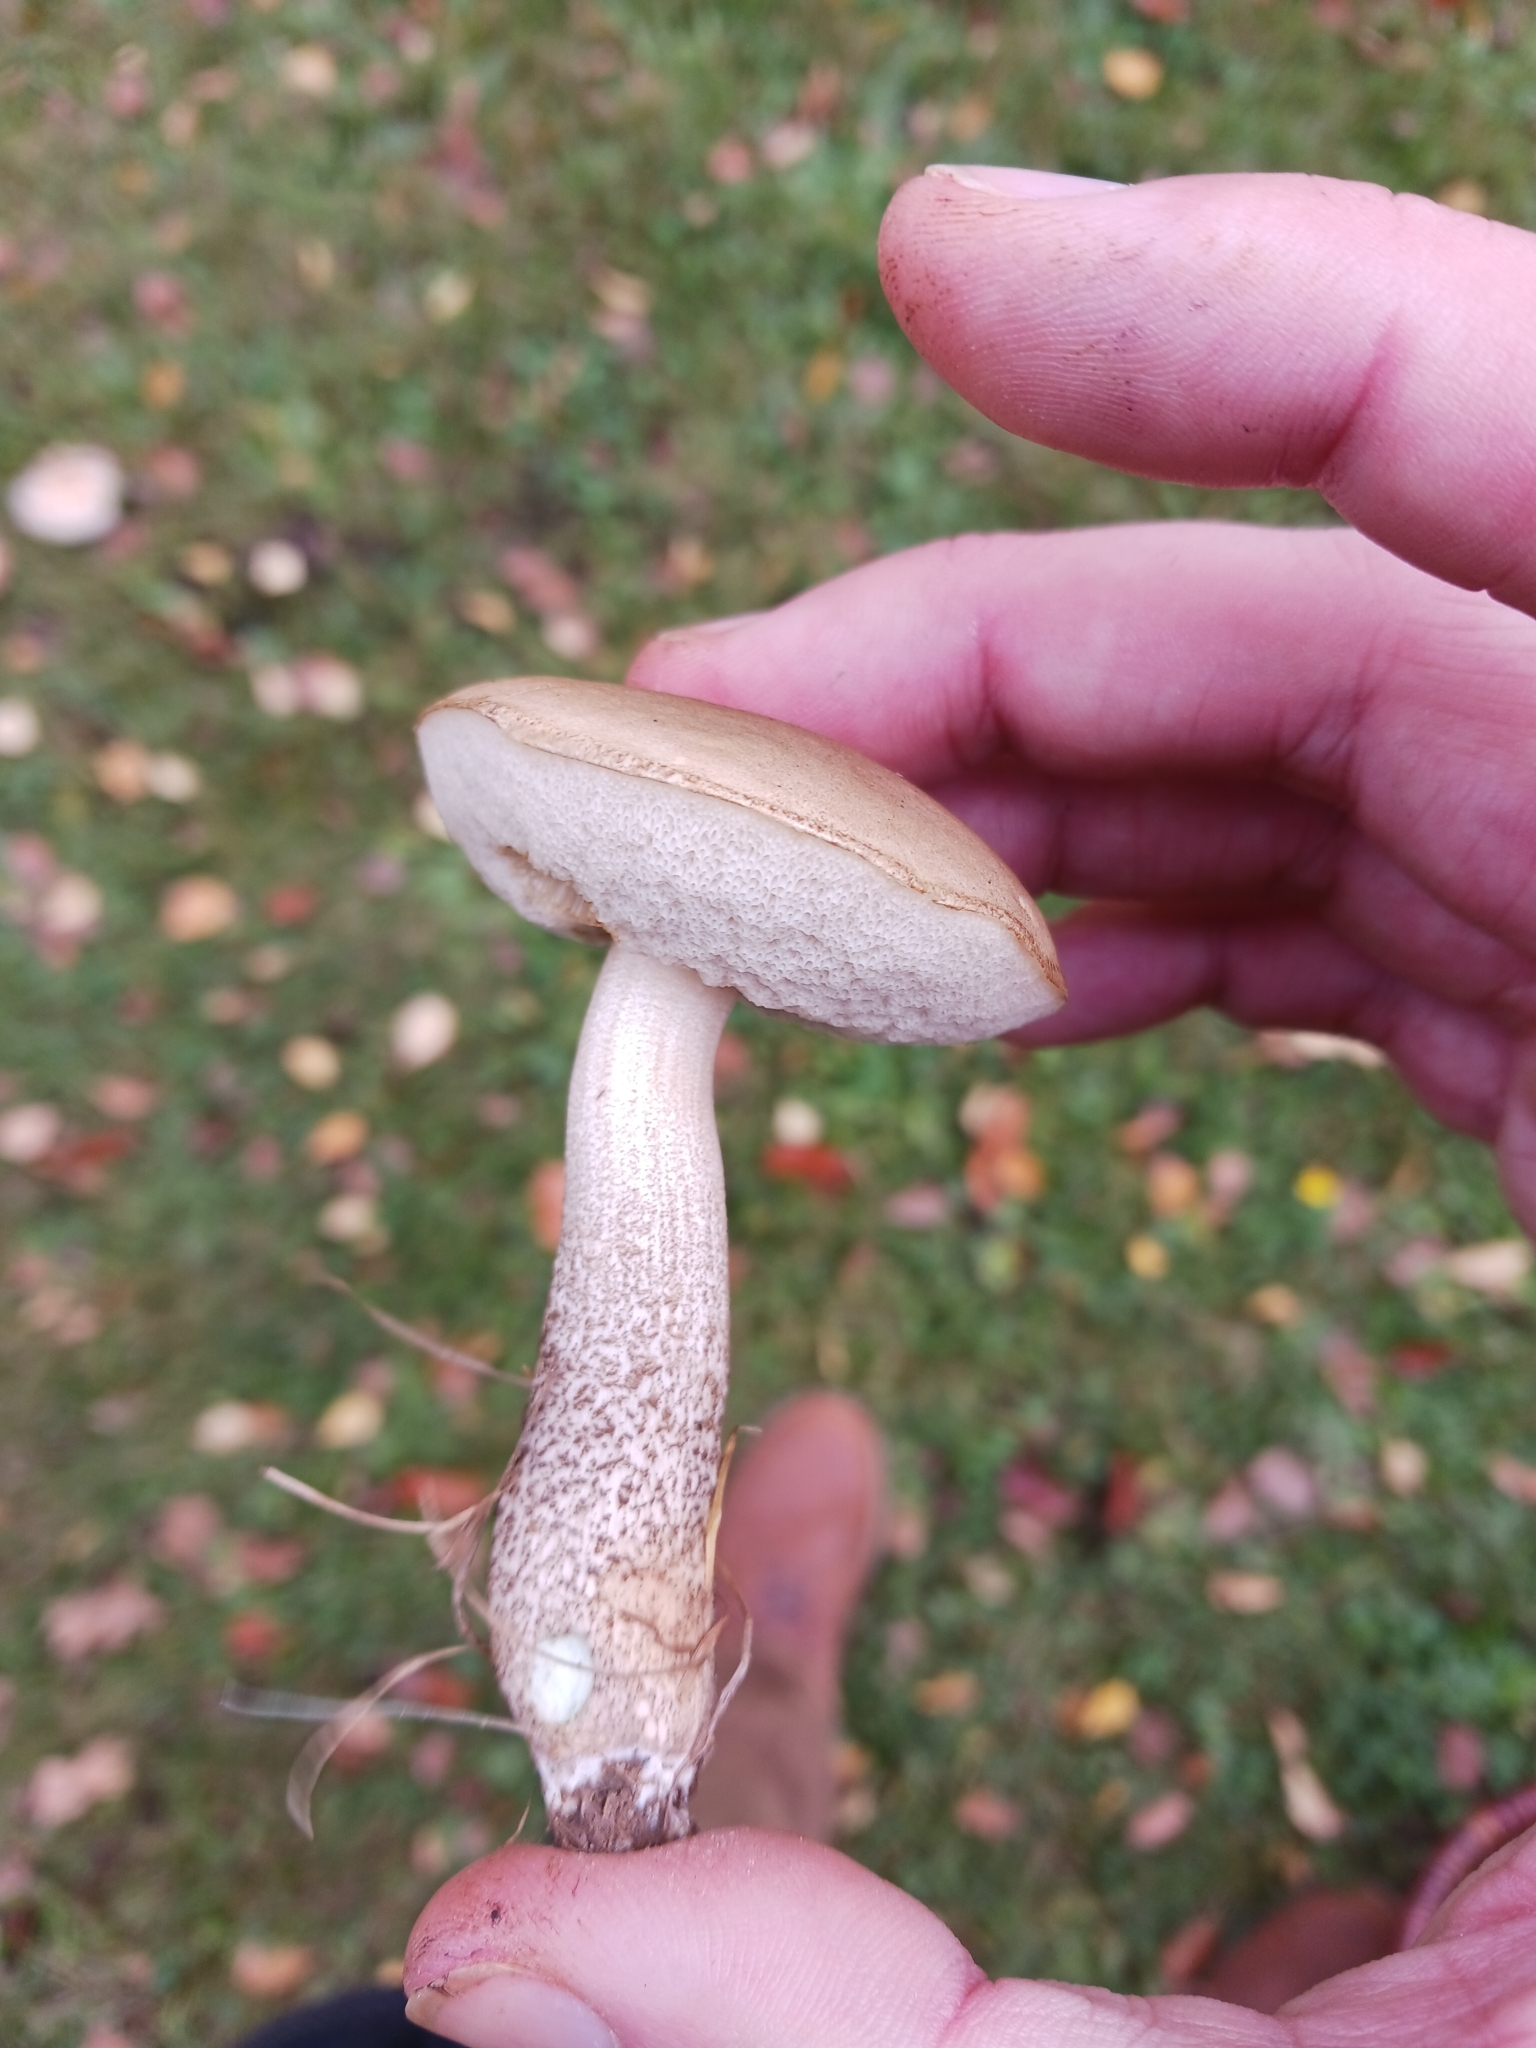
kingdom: Fungi
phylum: Basidiomycota
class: Agaricomycetes
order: Boletales
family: Boletaceae
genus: Leccinum
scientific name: Leccinum scabrum
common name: Blushing bolete
